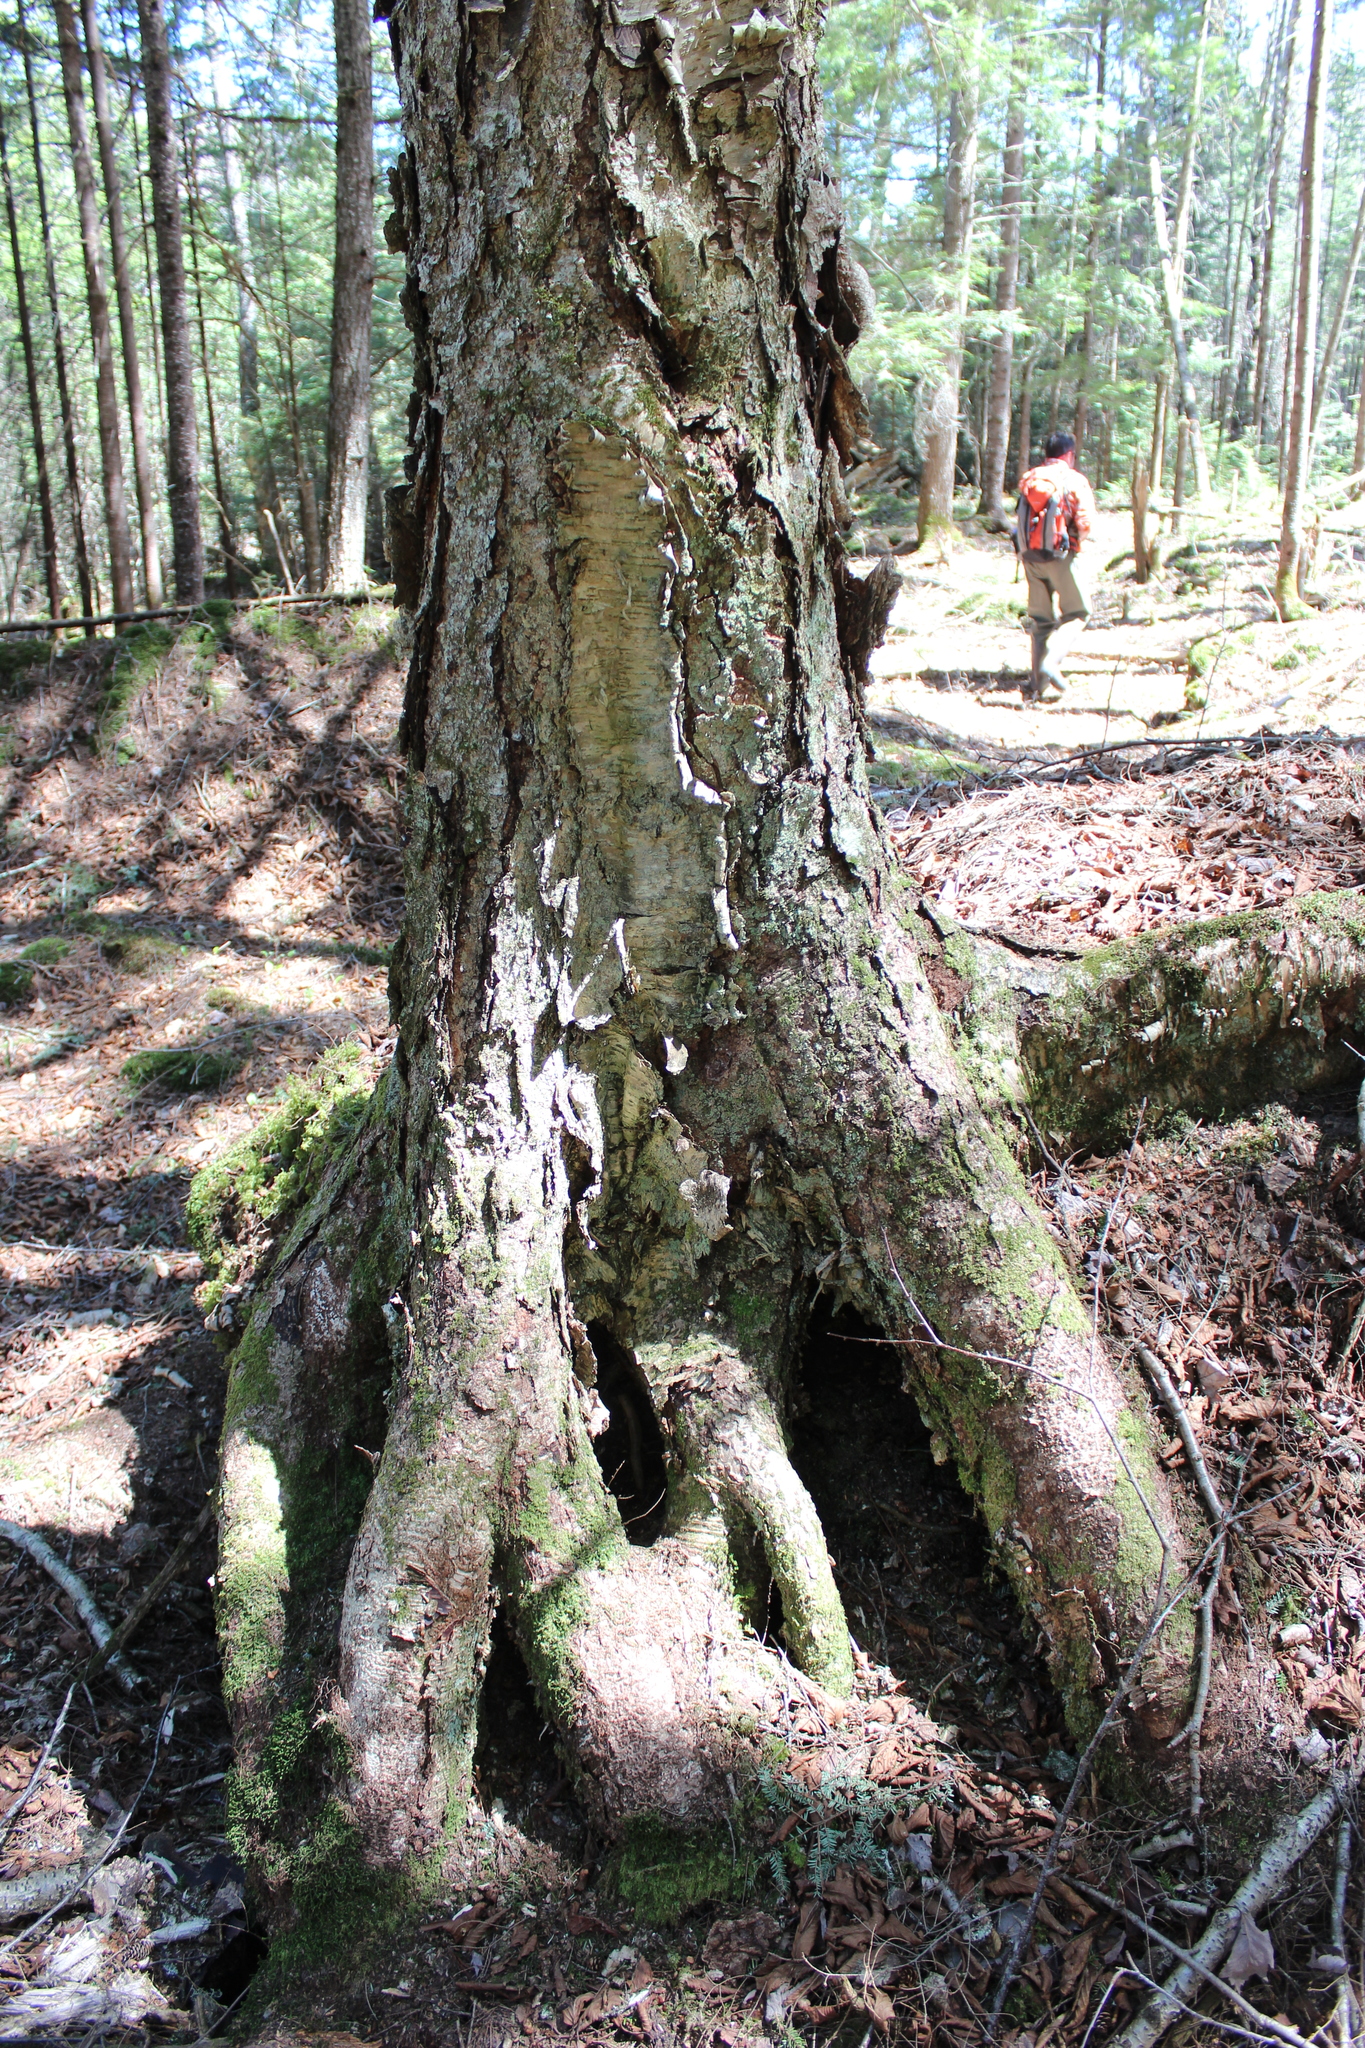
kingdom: Plantae
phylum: Tracheophyta
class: Magnoliopsida
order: Fagales
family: Betulaceae
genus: Betula
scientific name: Betula alleghaniensis
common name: Yellow birch
